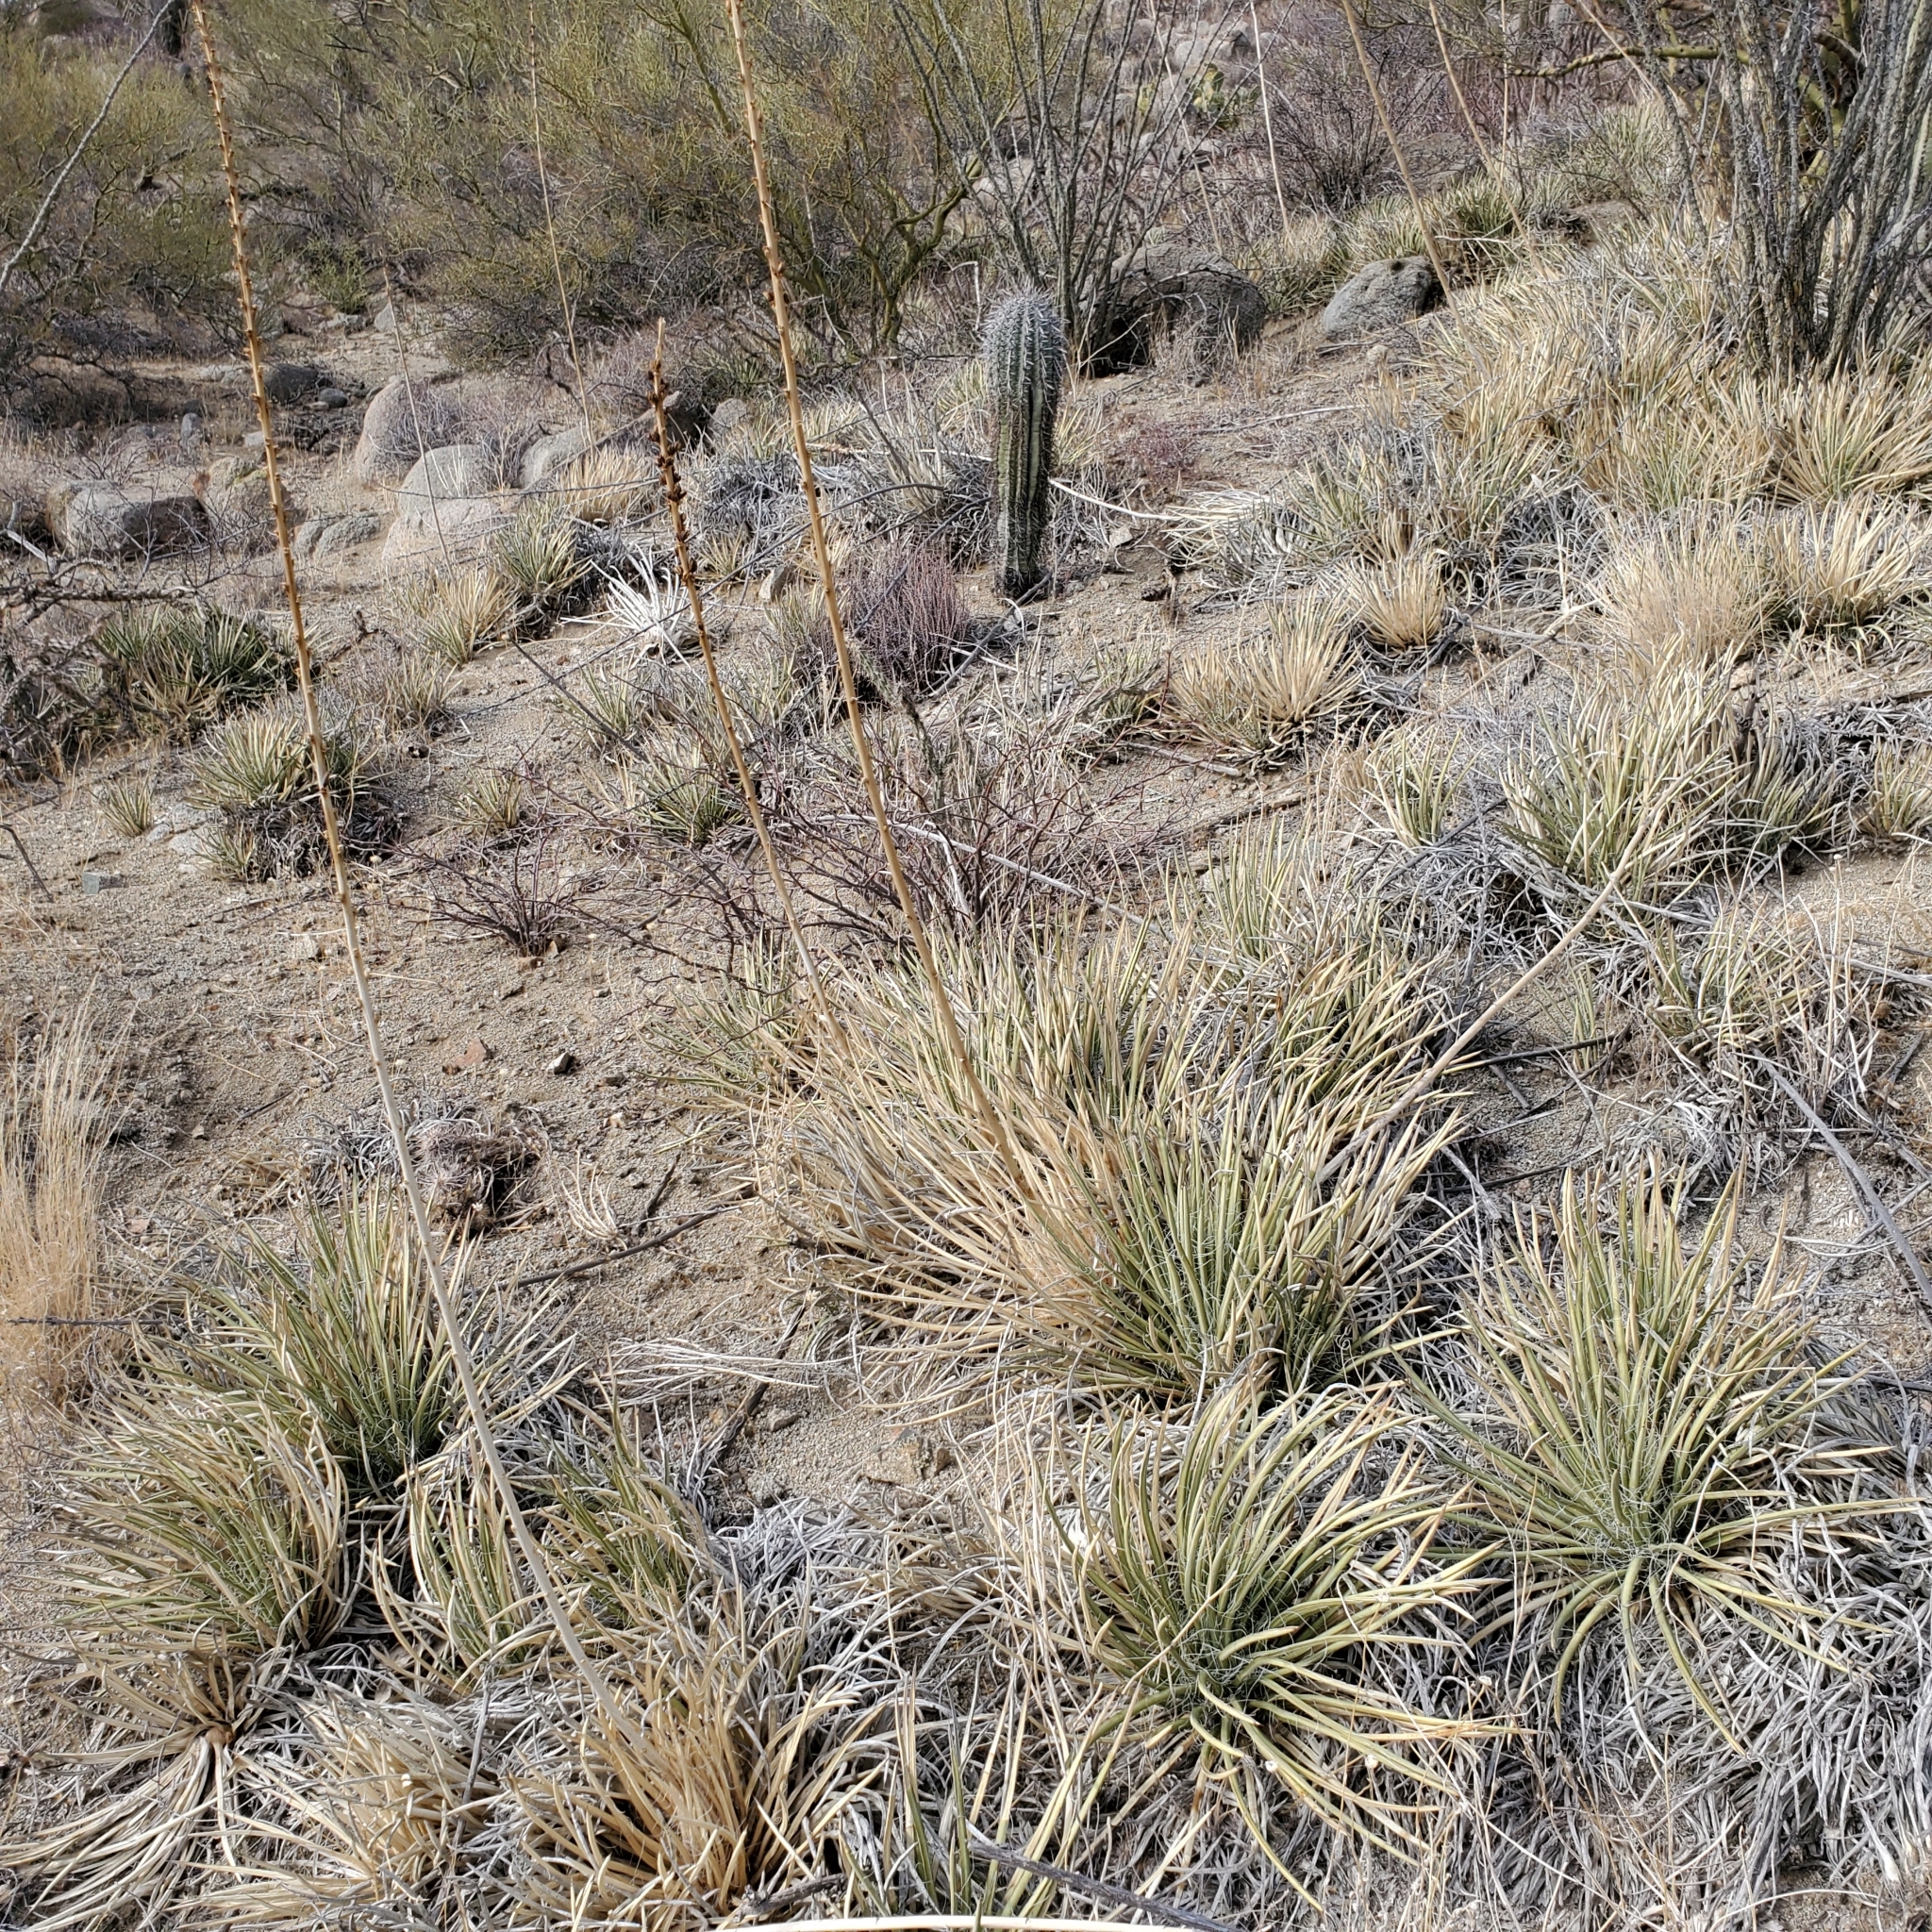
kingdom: Plantae
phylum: Tracheophyta
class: Liliopsida
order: Asparagales
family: Asparagaceae
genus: Agave
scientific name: Agave schottii
